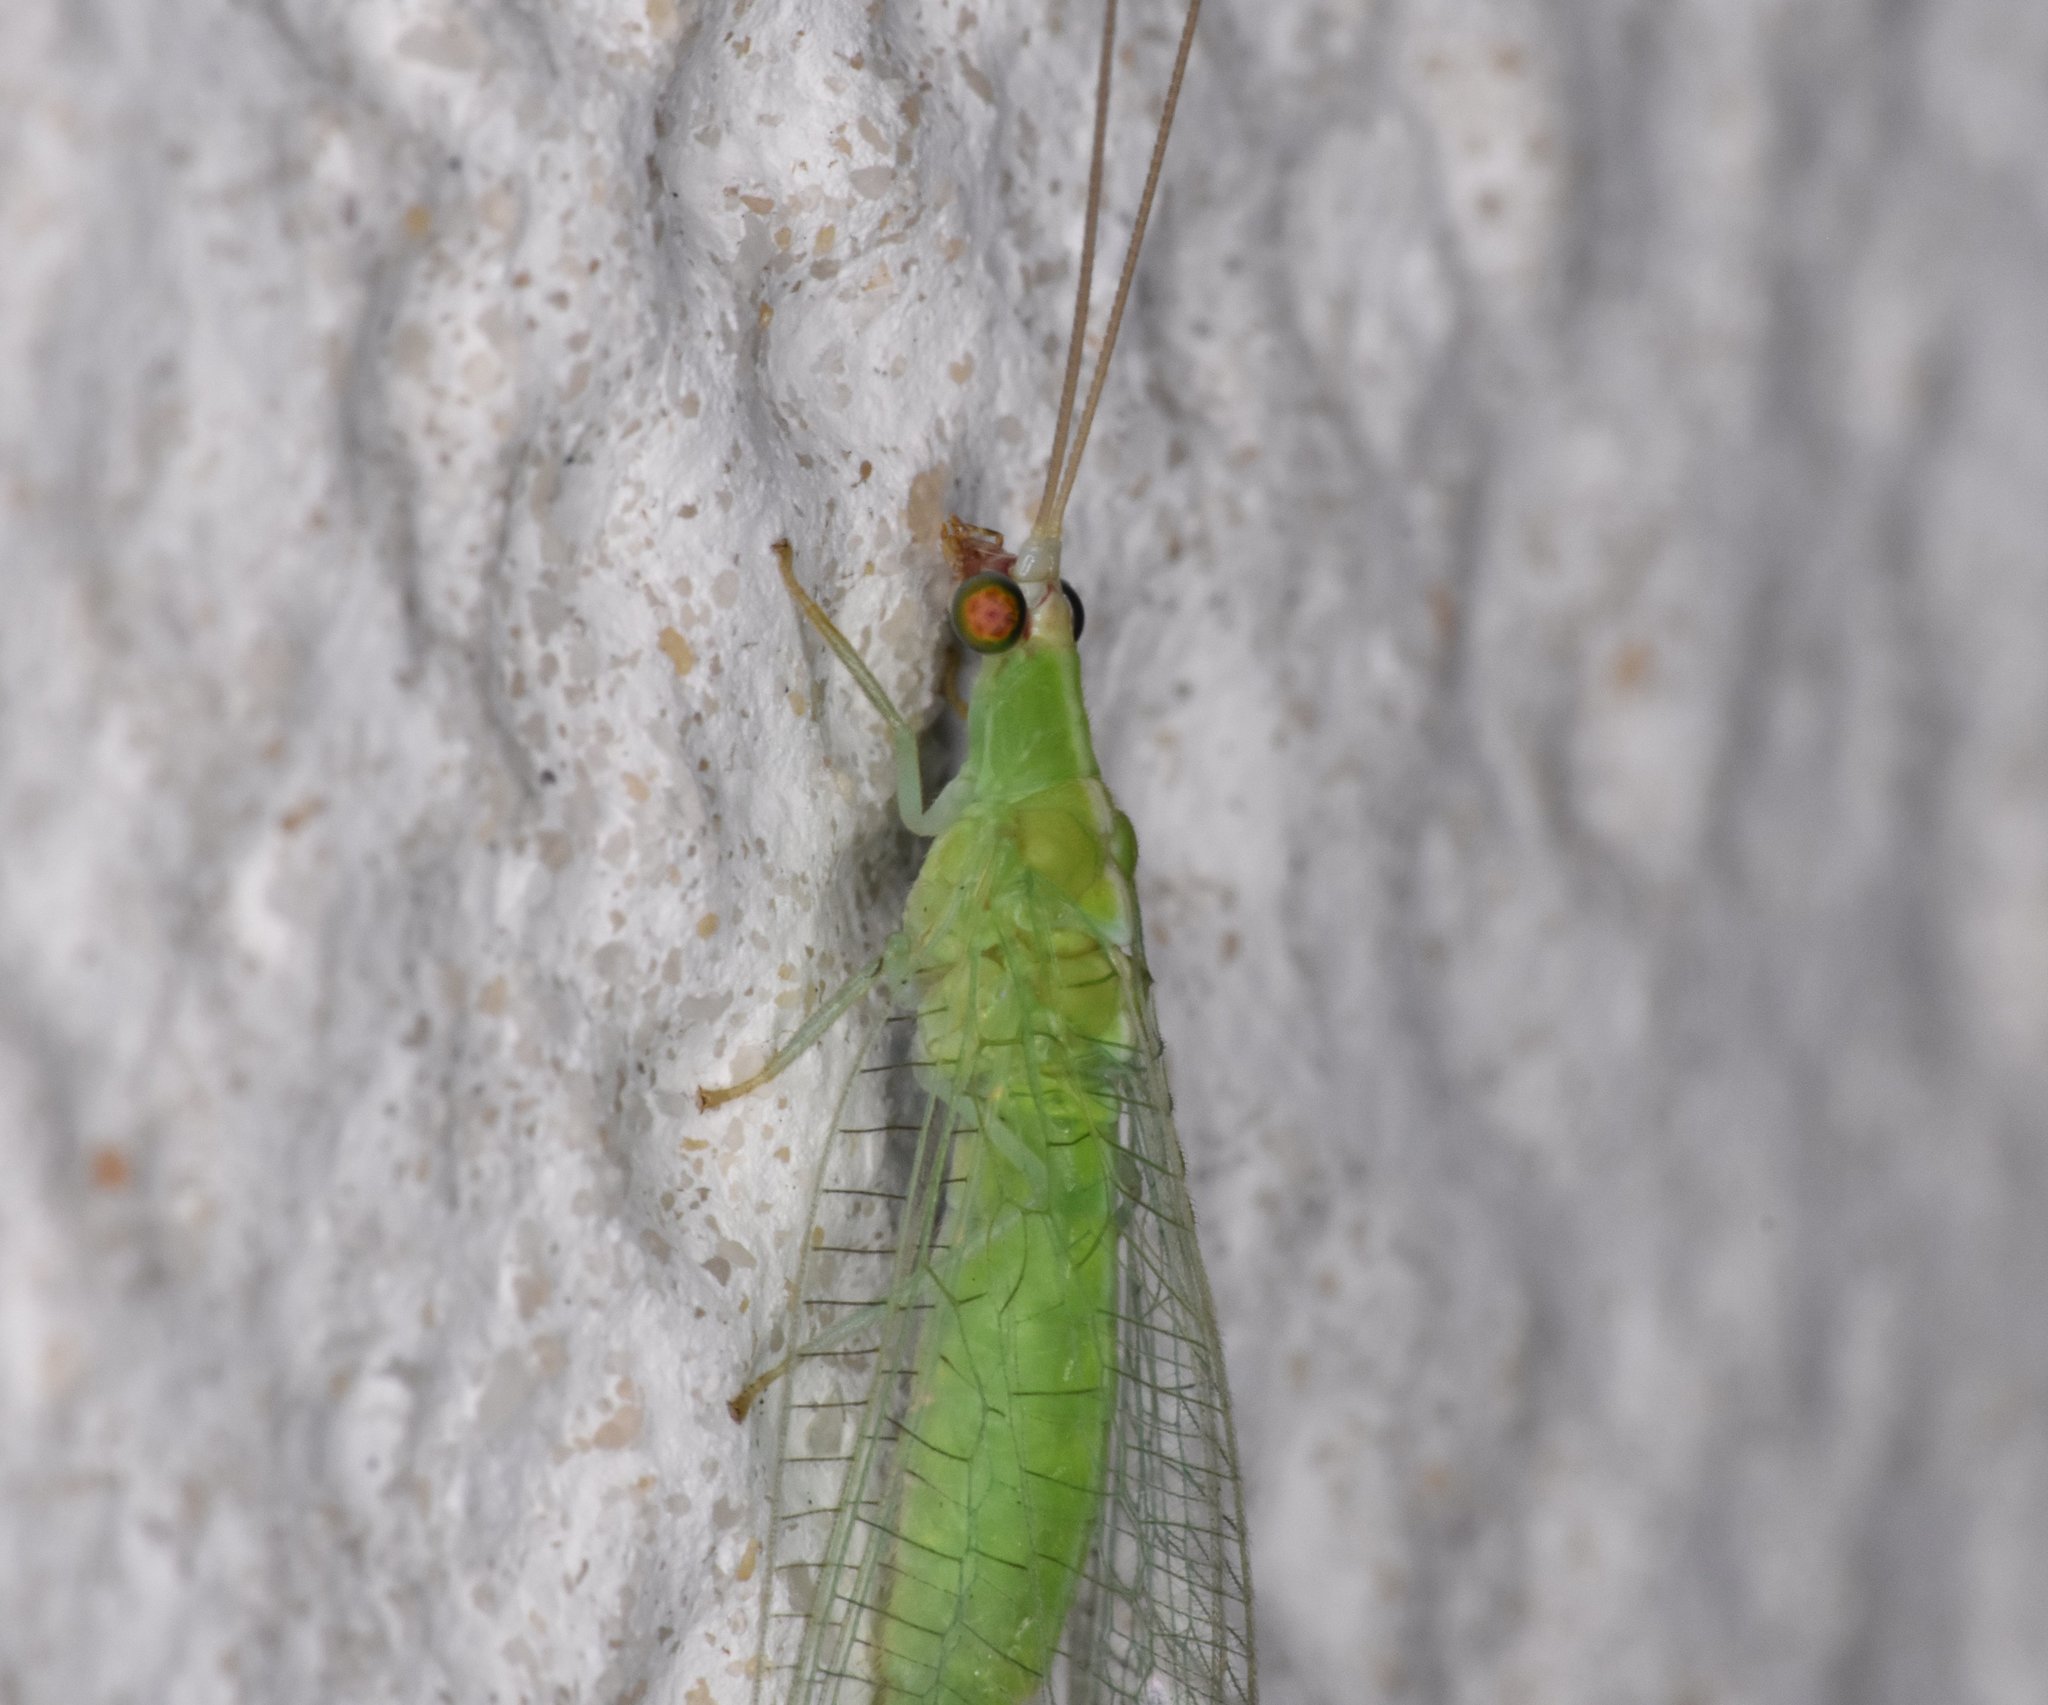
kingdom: Animalia
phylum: Arthropoda
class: Insecta
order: Neuroptera
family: Chrysopidae
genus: Chrysopodes
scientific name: Chrysopodes collaris
